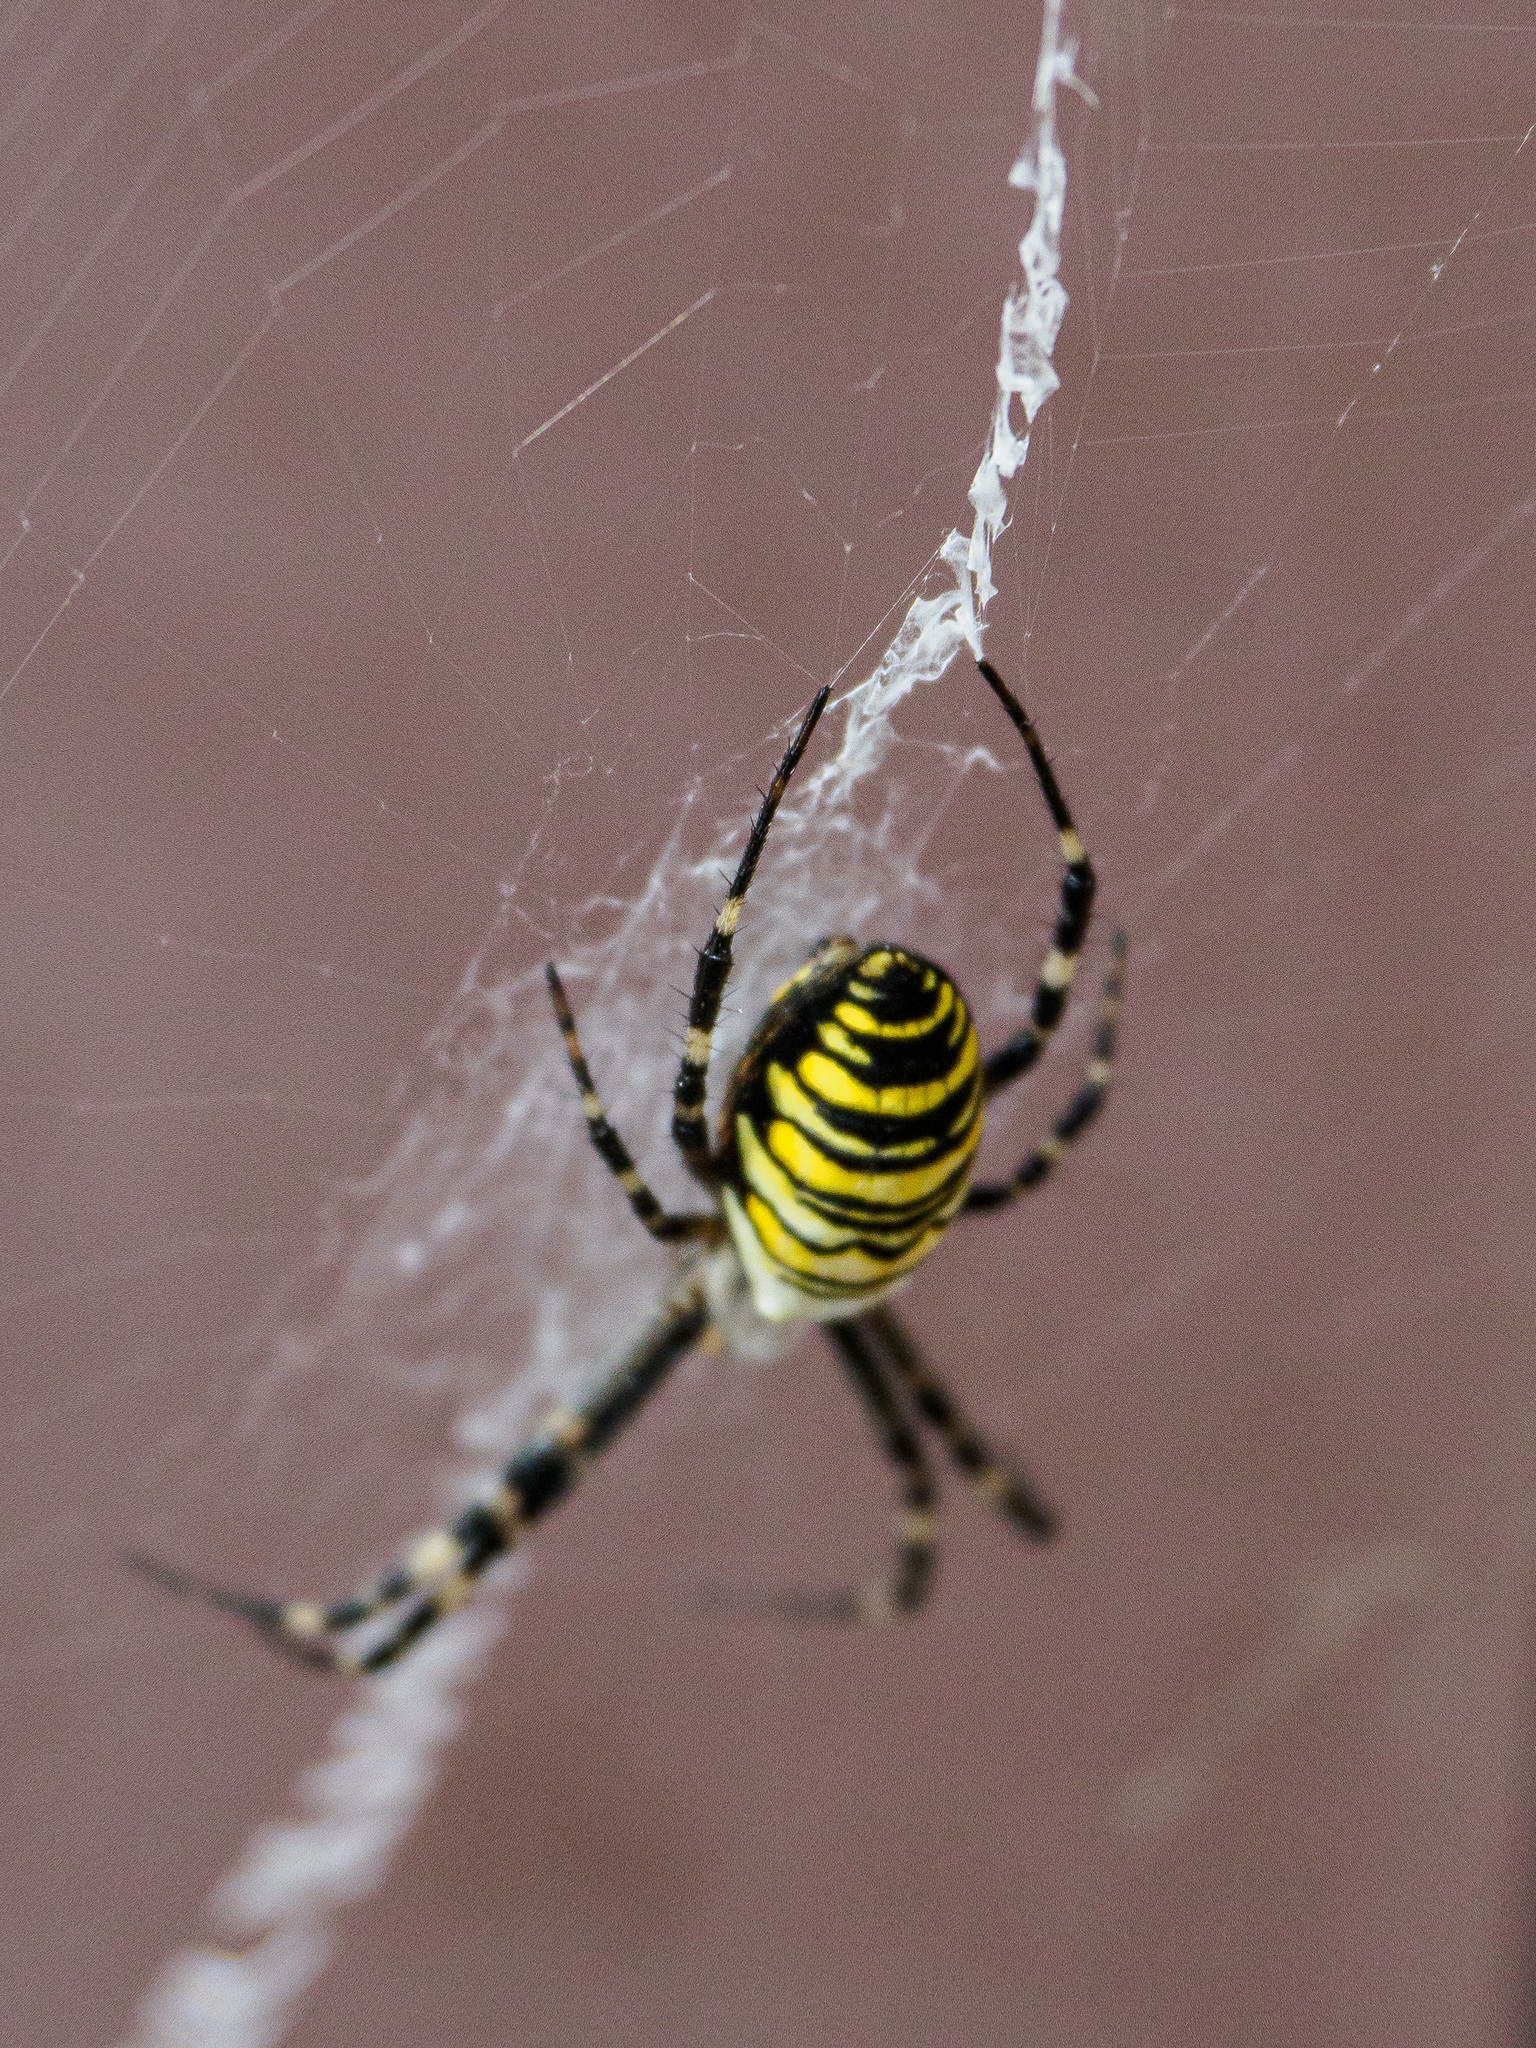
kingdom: Animalia
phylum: Arthropoda
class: Arachnida
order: Araneae
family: Araneidae
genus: Argiope
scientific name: Argiope bruennichi
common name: Wasp spider
